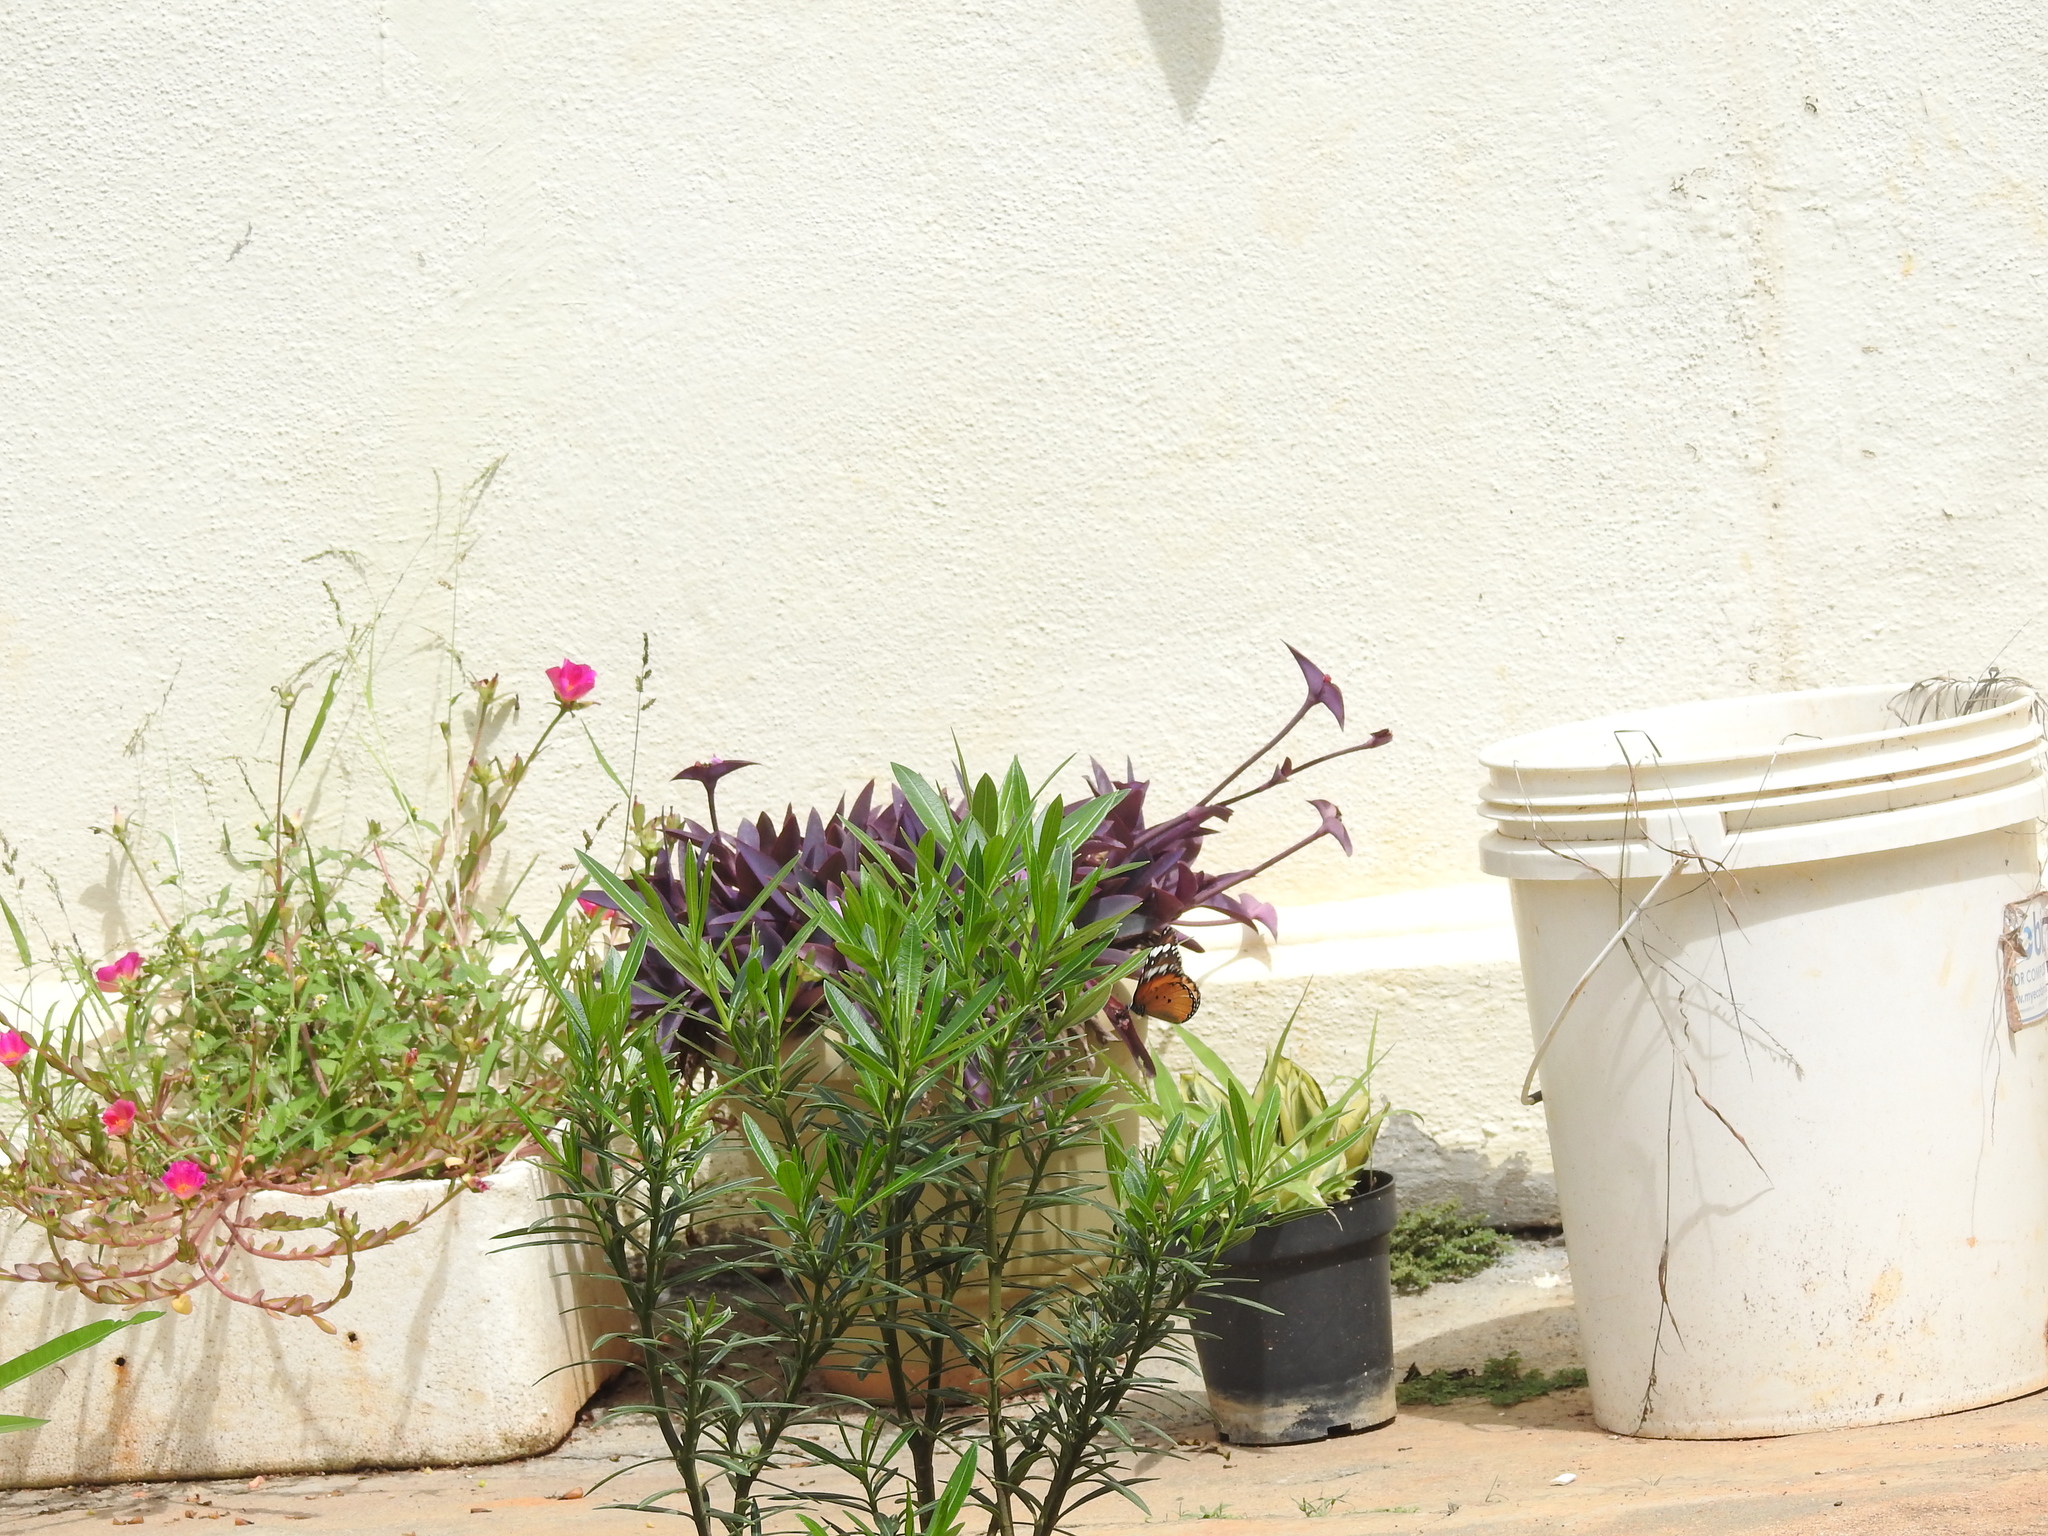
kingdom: Animalia
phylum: Arthropoda
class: Insecta
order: Lepidoptera
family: Nymphalidae
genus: Danaus
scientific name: Danaus chrysippus
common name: Plain tiger
